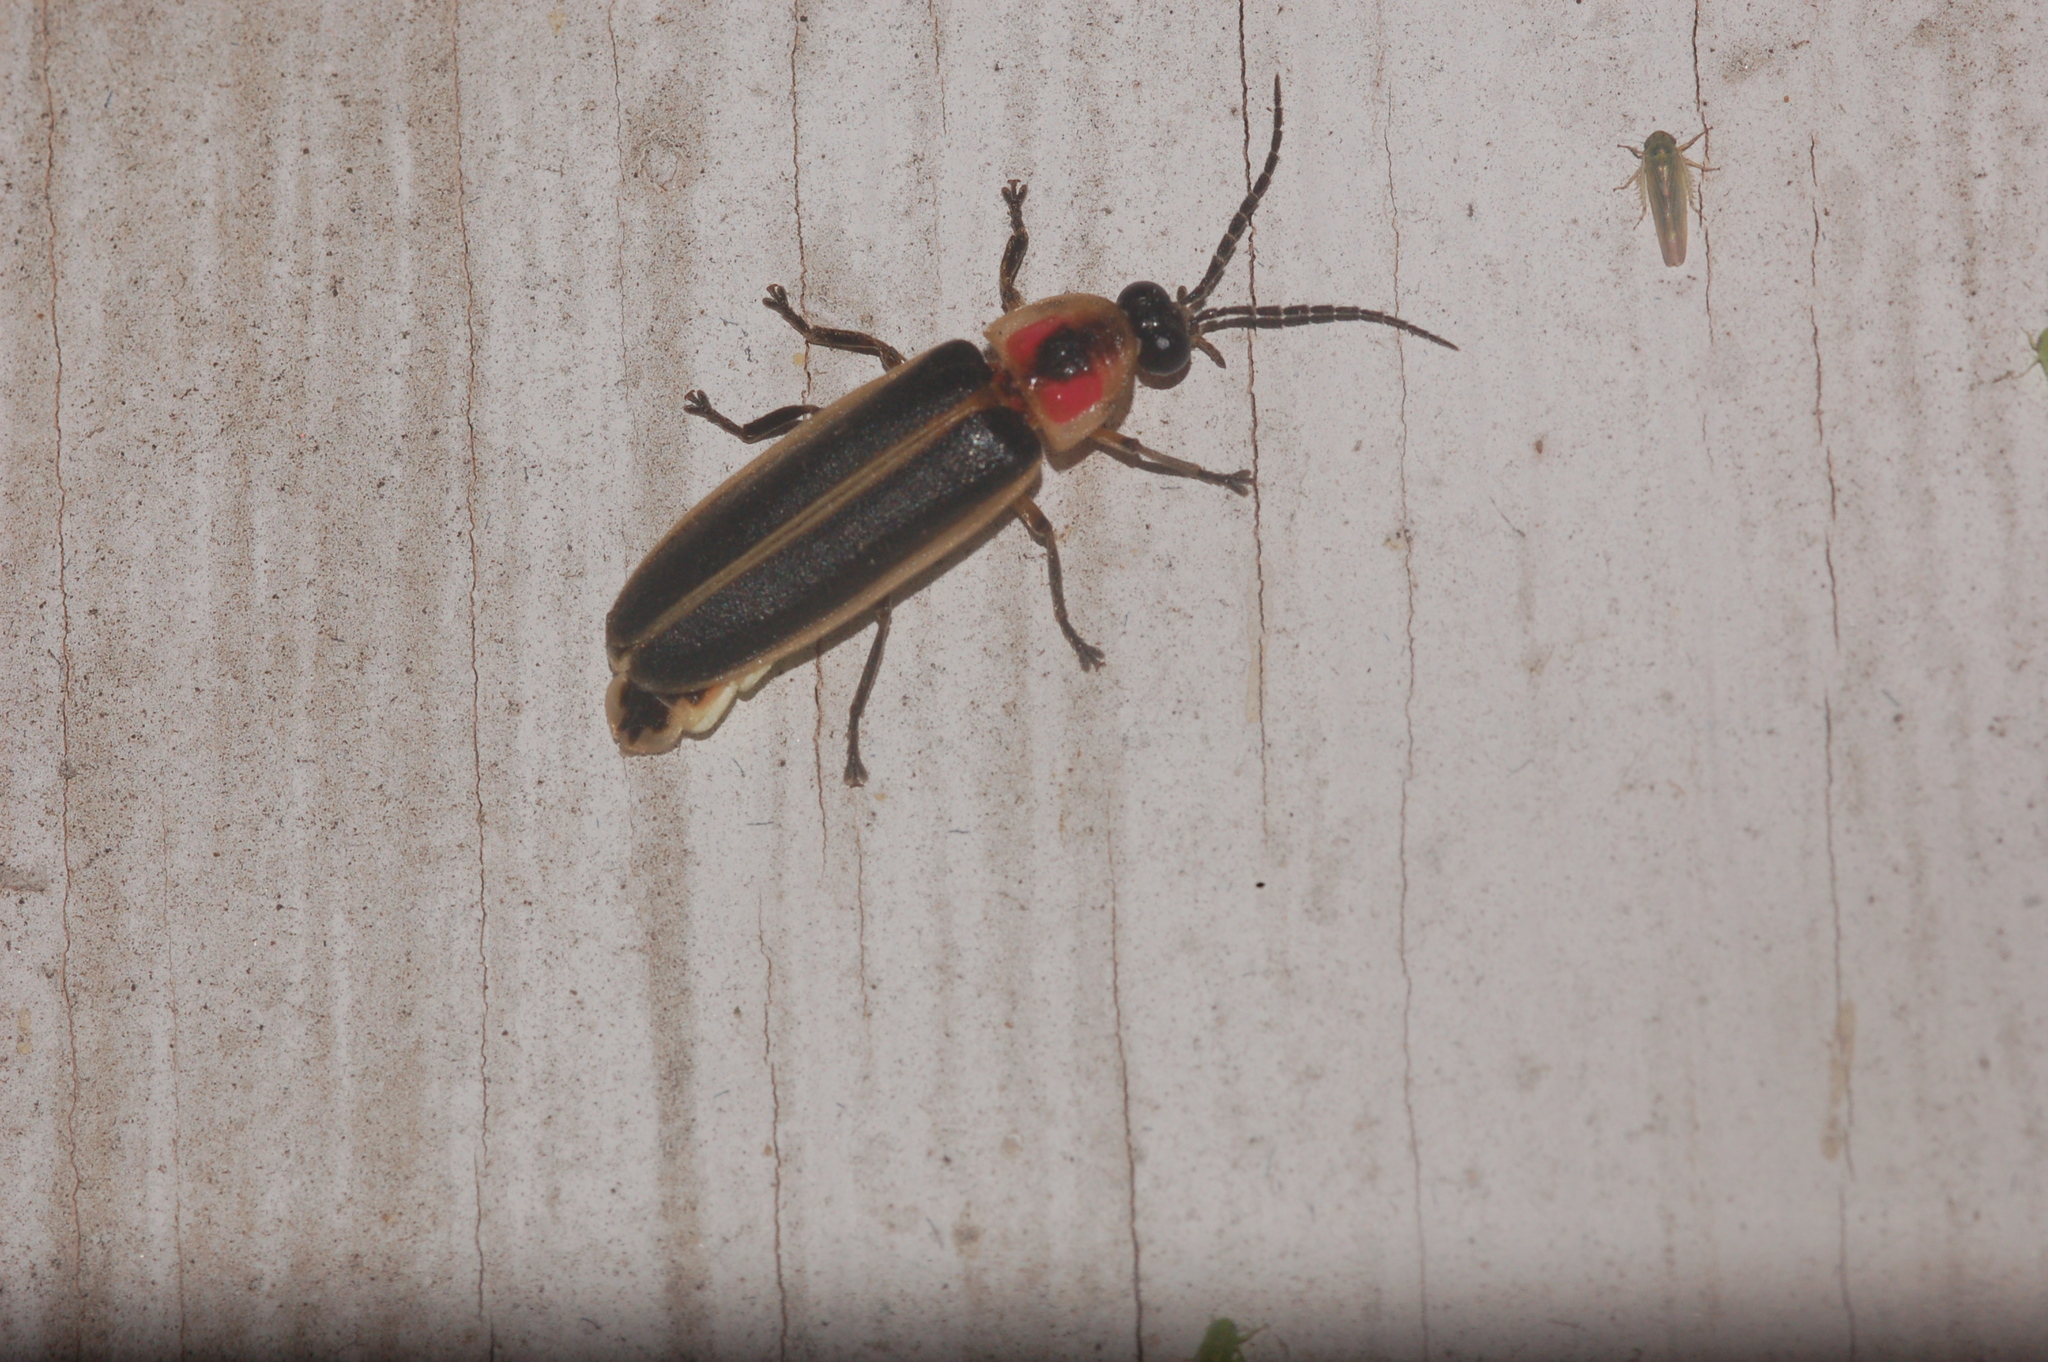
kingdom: Animalia
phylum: Arthropoda
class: Insecta
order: Coleoptera
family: Lampyridae
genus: Photinus
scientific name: Photinus pyralis
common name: Big dipper firefly
